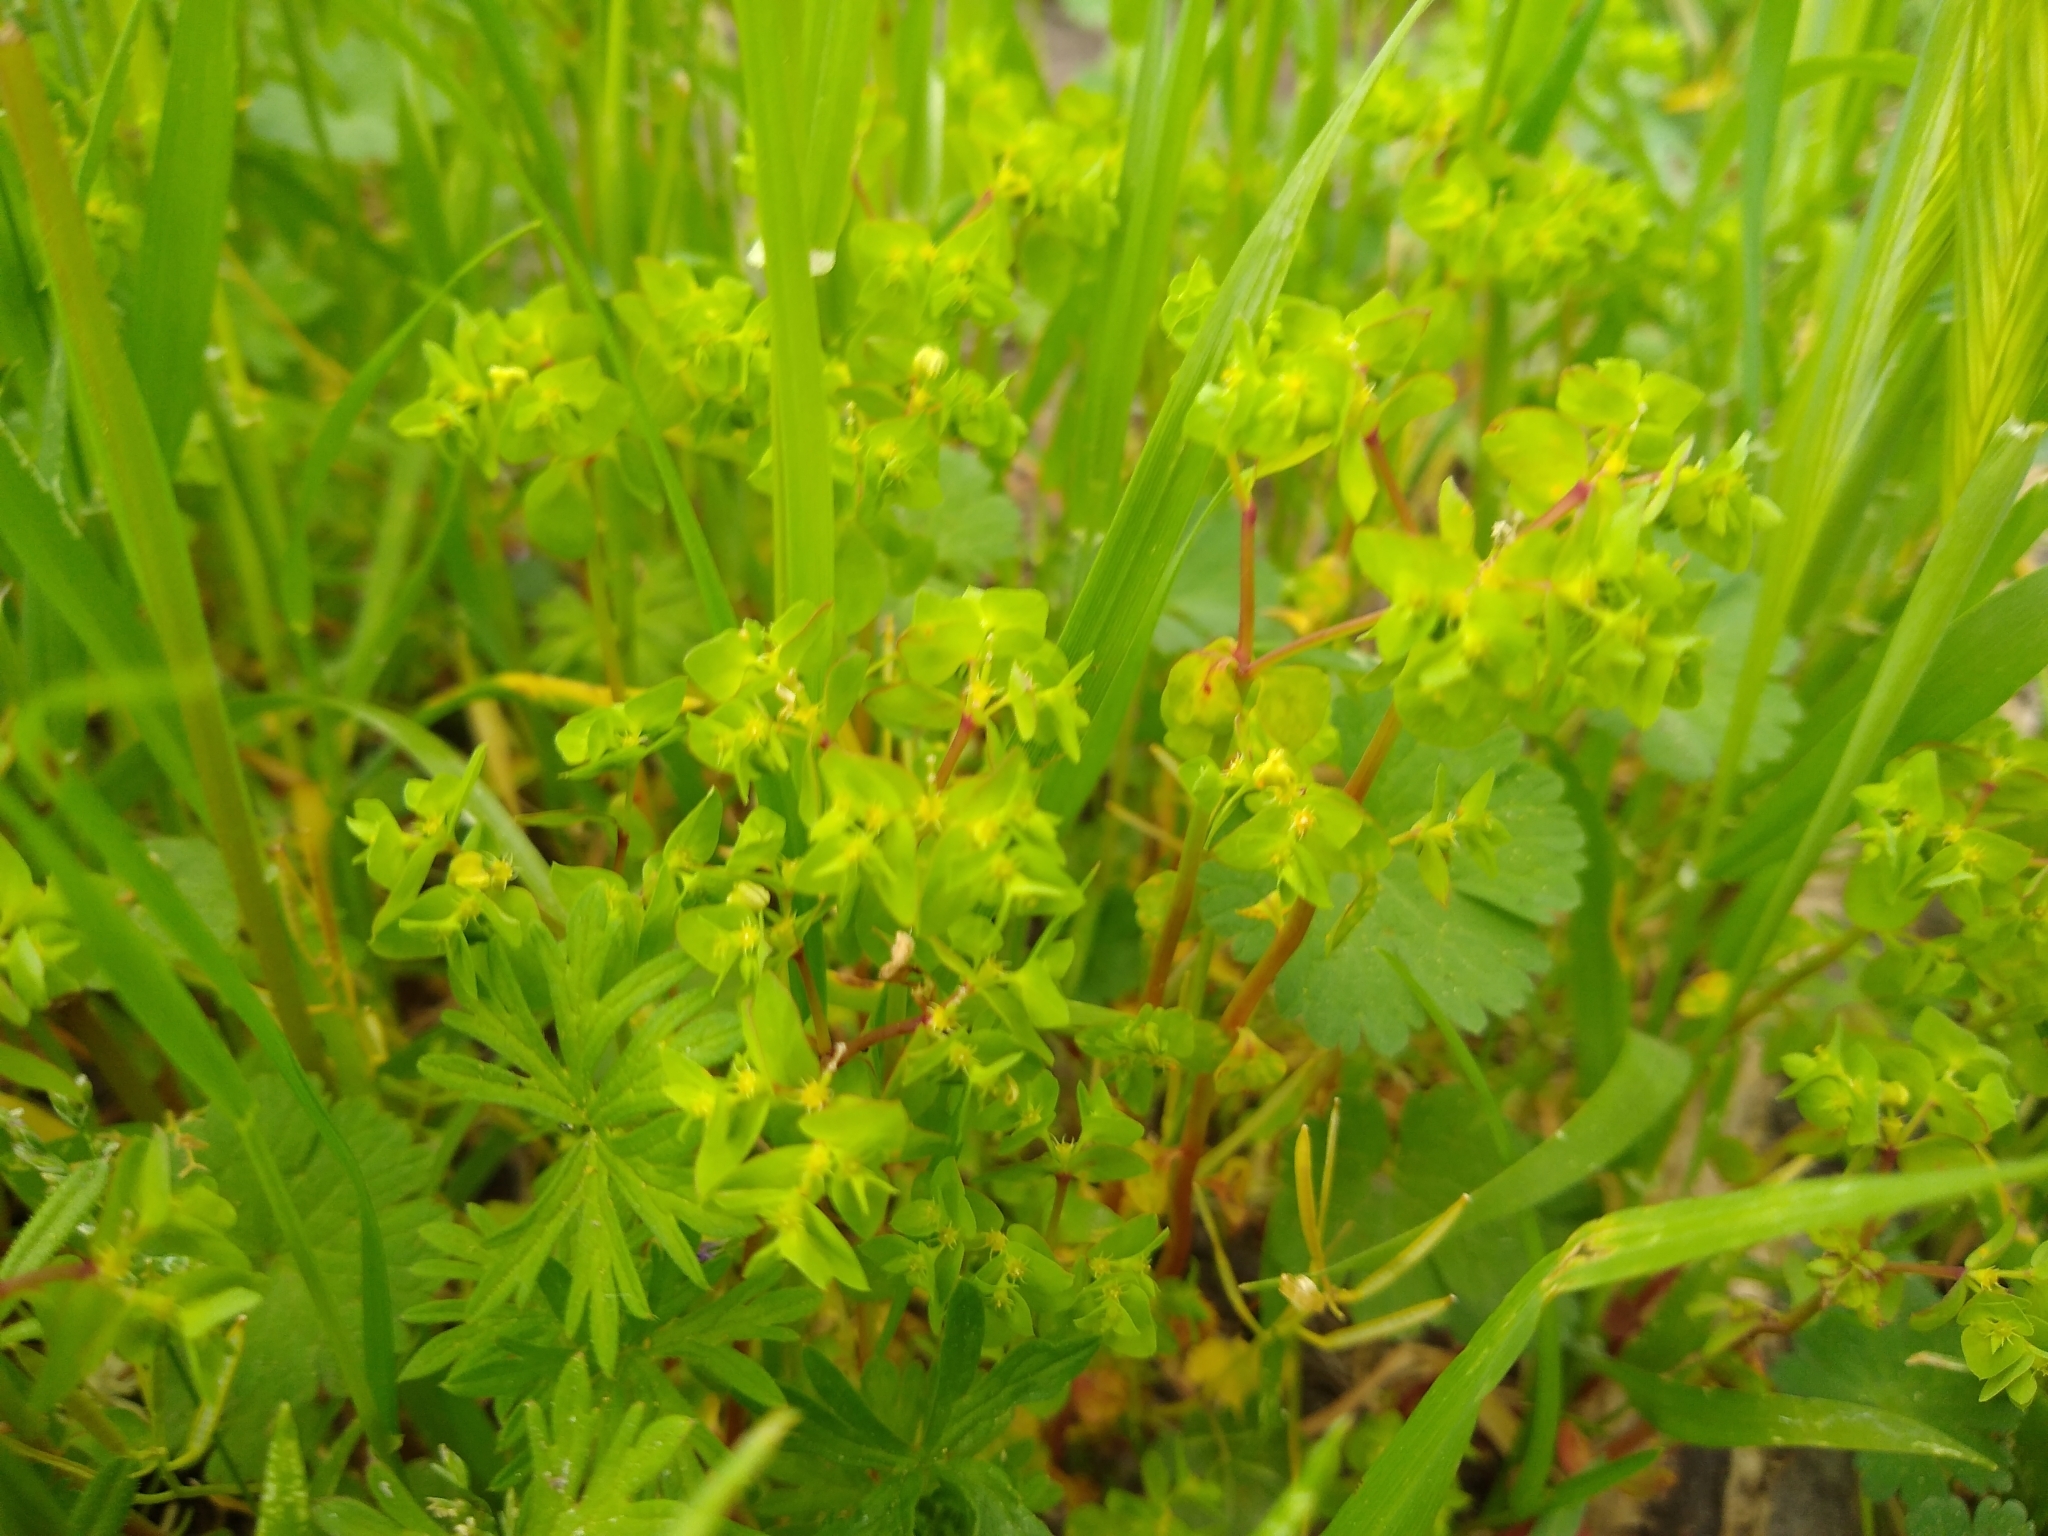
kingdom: Plantae
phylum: Tracheophyta
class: Magnoliopsida
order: Malpighiales
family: Euphorbiaceae
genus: Euphorbia
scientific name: Euphorbia peplus
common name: Petty spurge
